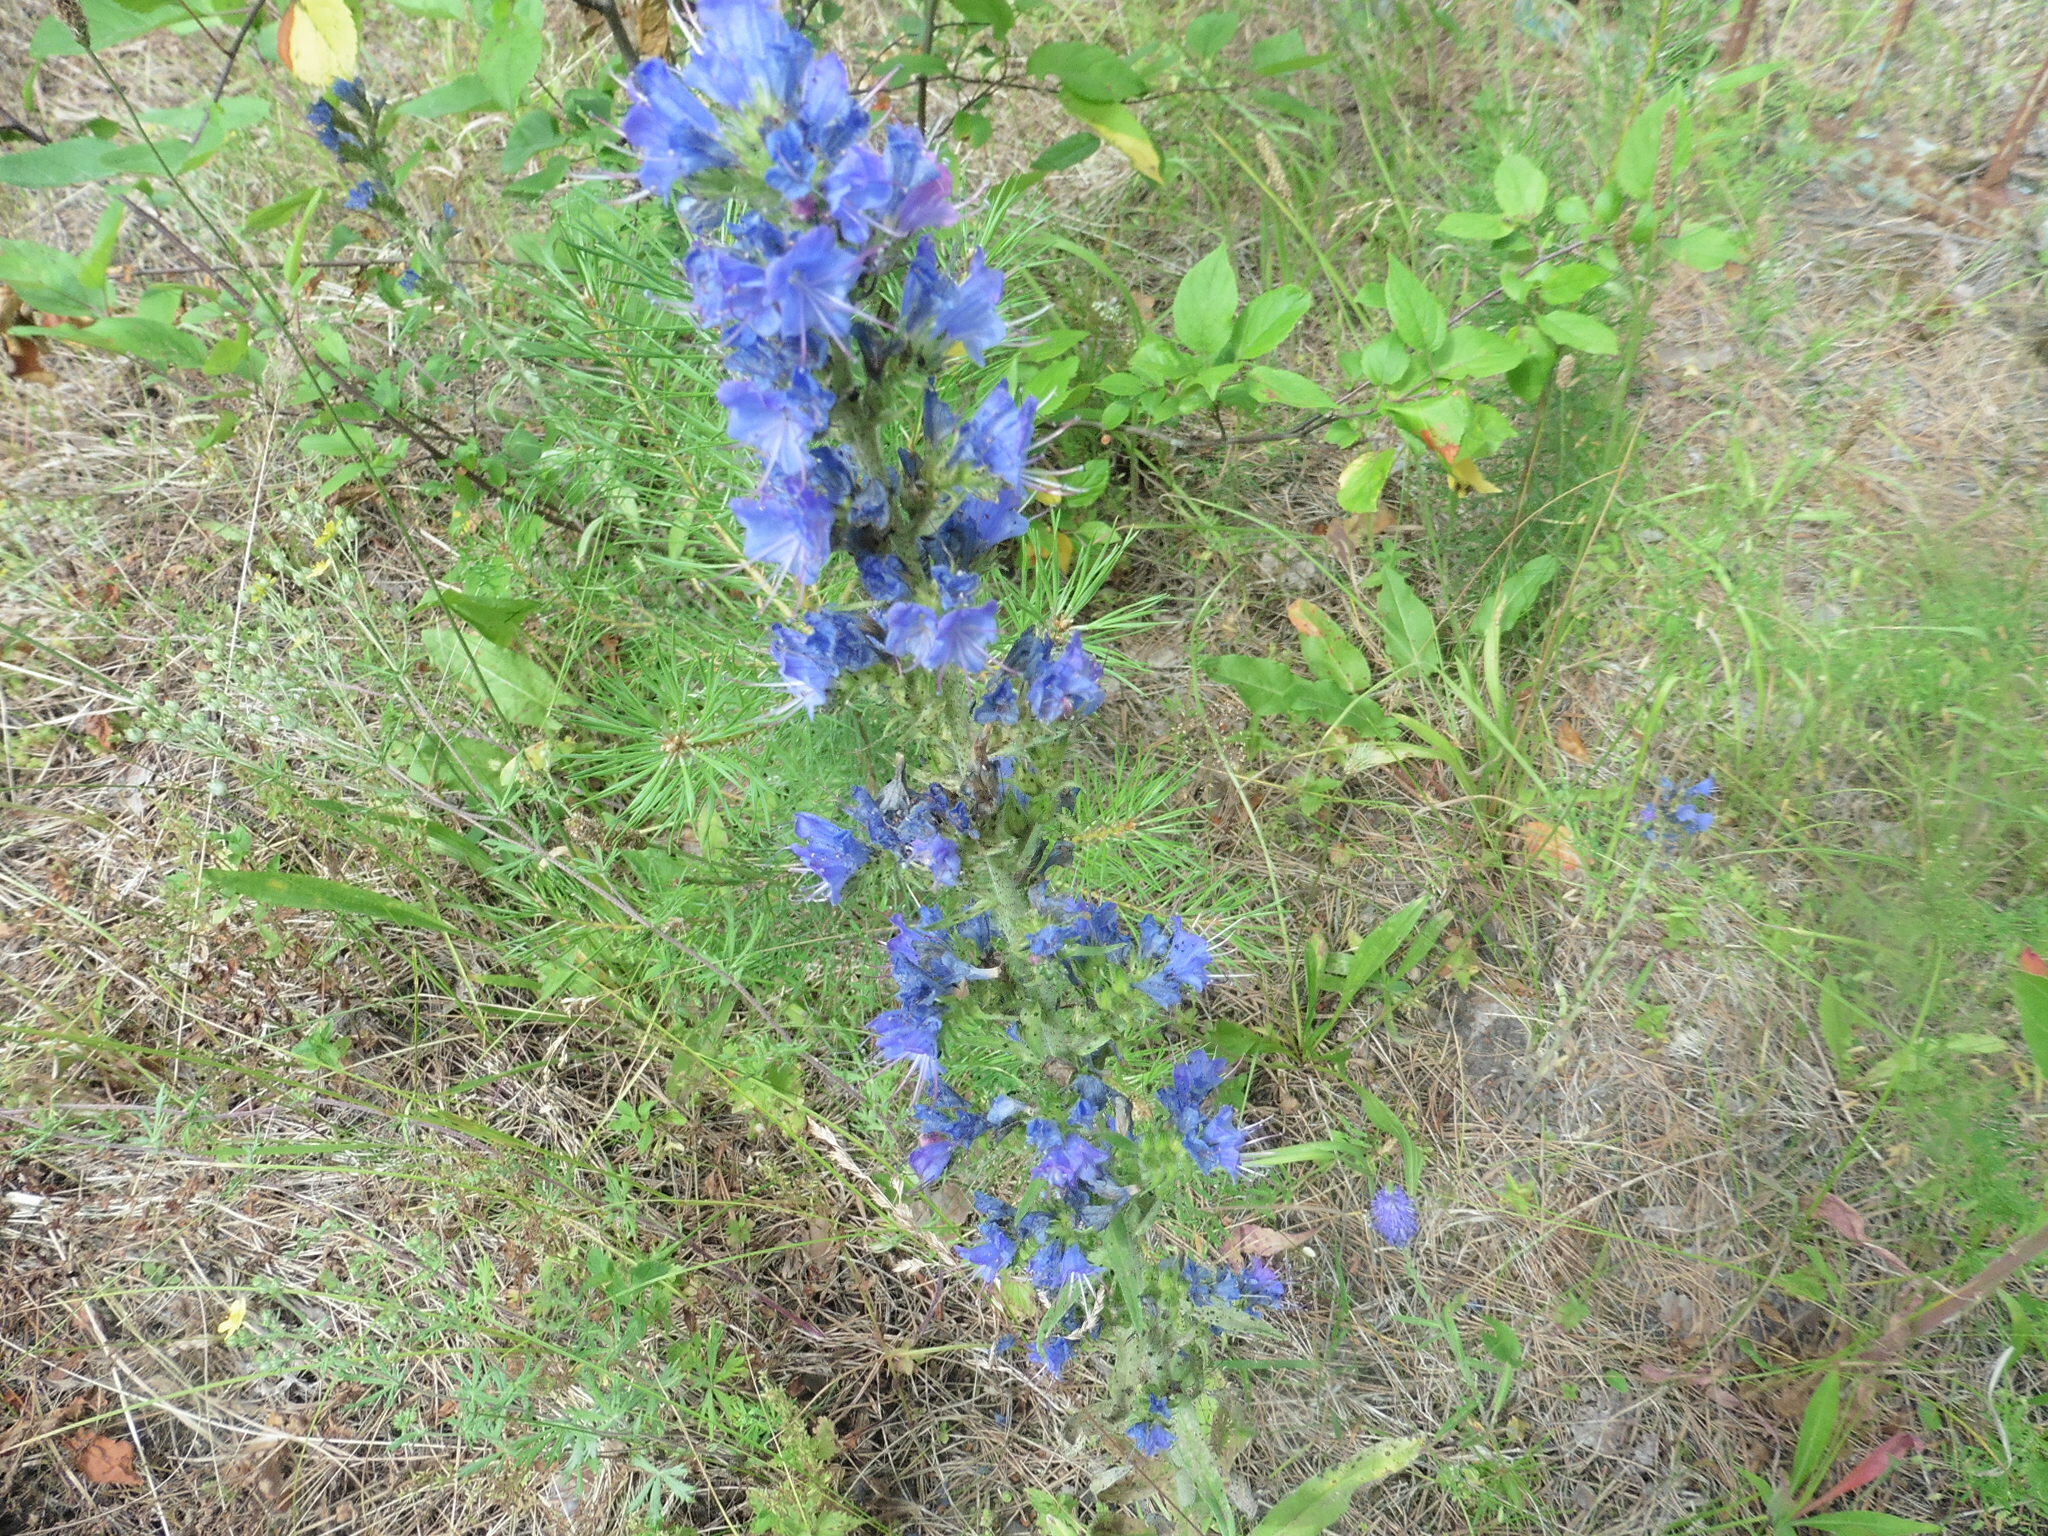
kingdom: Plantae
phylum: Tracheophyta
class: Magnoliopsida
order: Boraginales
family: Boraginaceae
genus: Echium
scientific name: Echium vulgare
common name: Common viper's bugloss
